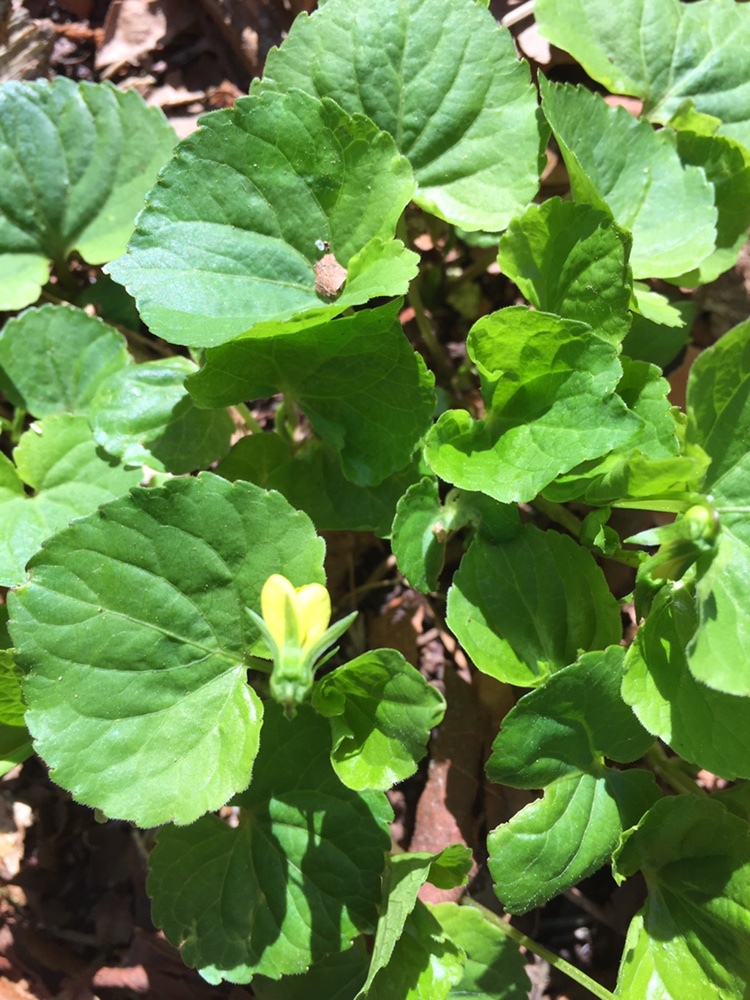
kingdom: Plantae
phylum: Tracheophyta
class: Magnoliopsida
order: Malpighiales
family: Violaceae
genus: Viola
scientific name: Viola glabella
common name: Stream violet
